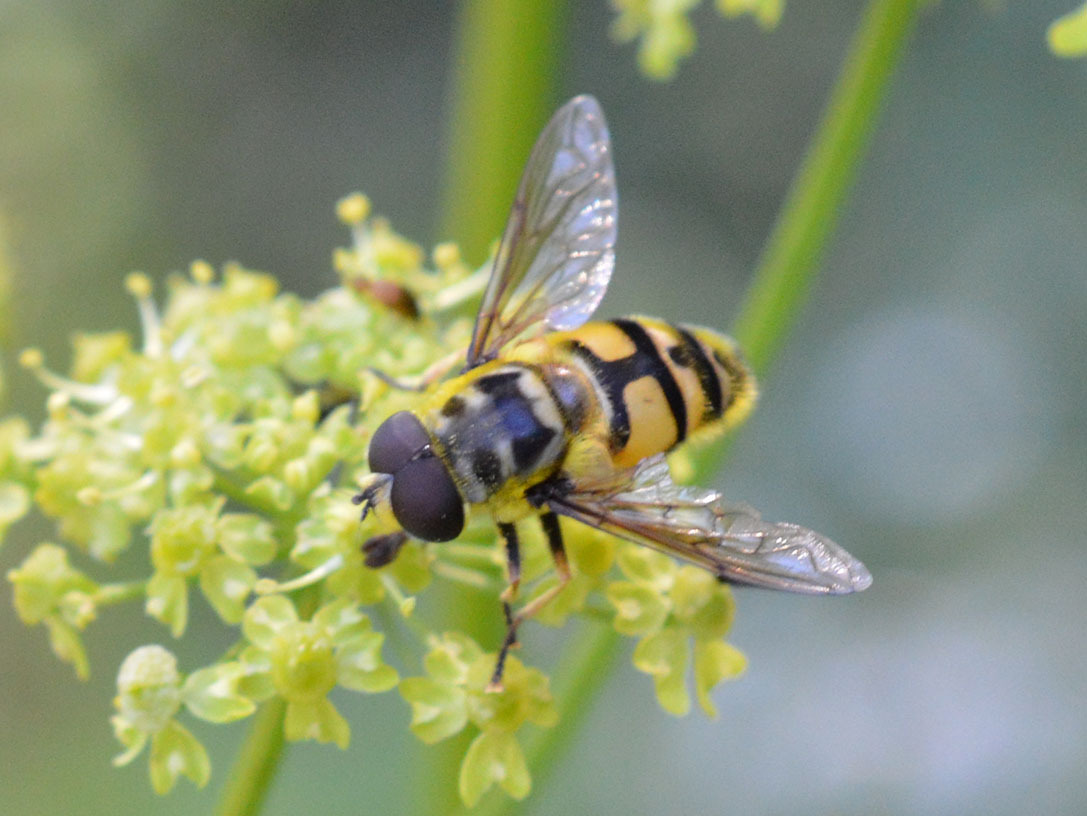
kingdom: Animalia
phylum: Arthropoda
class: Insecta
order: Diptera
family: Syrphidae
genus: Myathropa
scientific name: Myathropa florea
